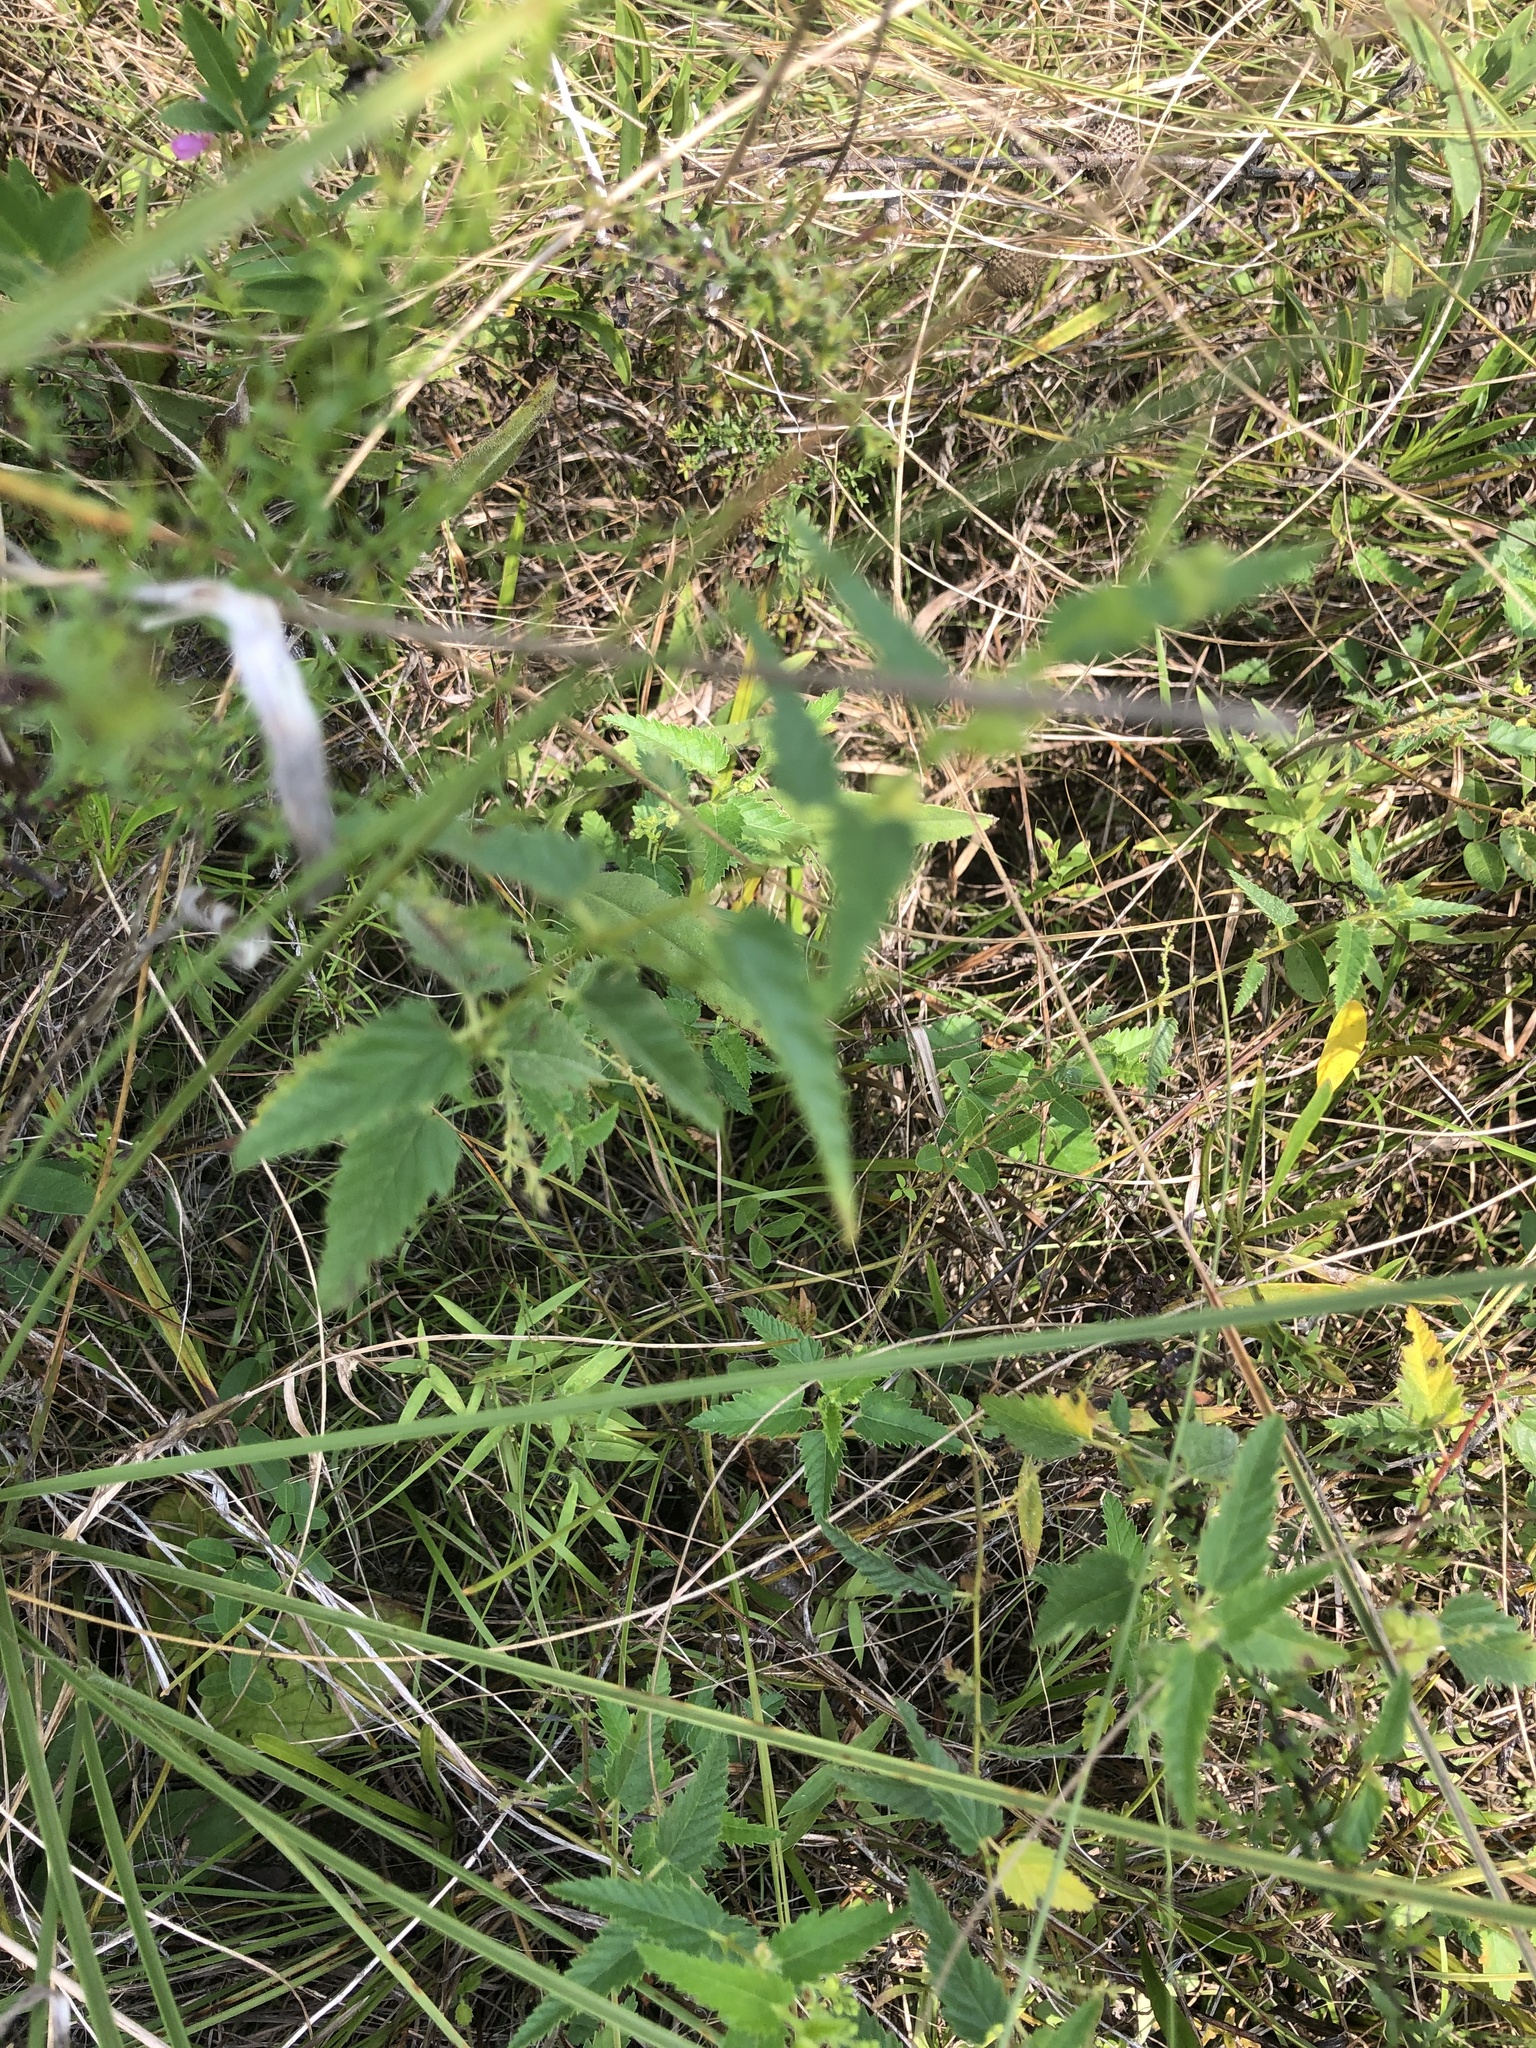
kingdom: Plantae
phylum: Tracheophyta
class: Magnoliopsida
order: Malpighiales
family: Euphorbiaceae
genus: Tragia
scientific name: Tragia urticifolia
